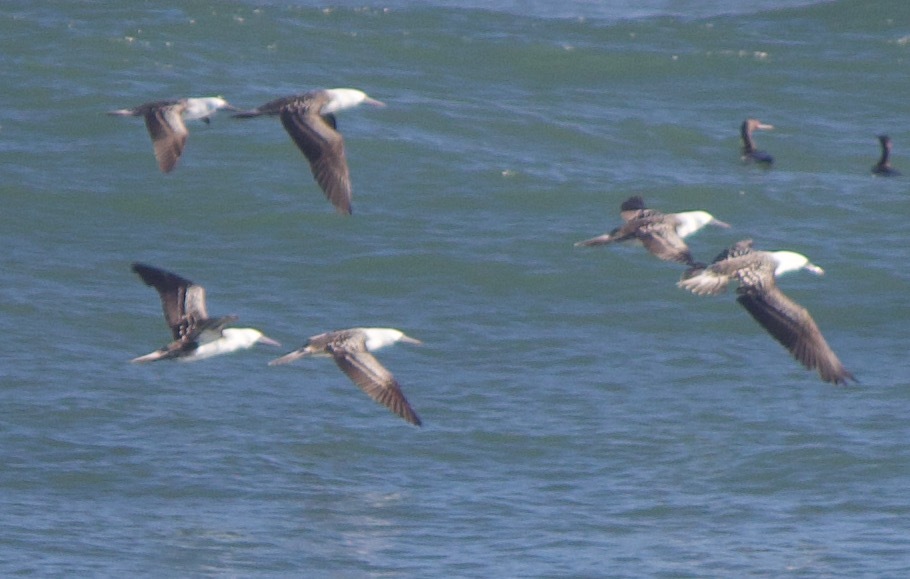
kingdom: Animalia
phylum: Chordata
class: Aves
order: Suliformes
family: Sulidae
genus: Sula
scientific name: Sula variegata
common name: Peruvian booby
